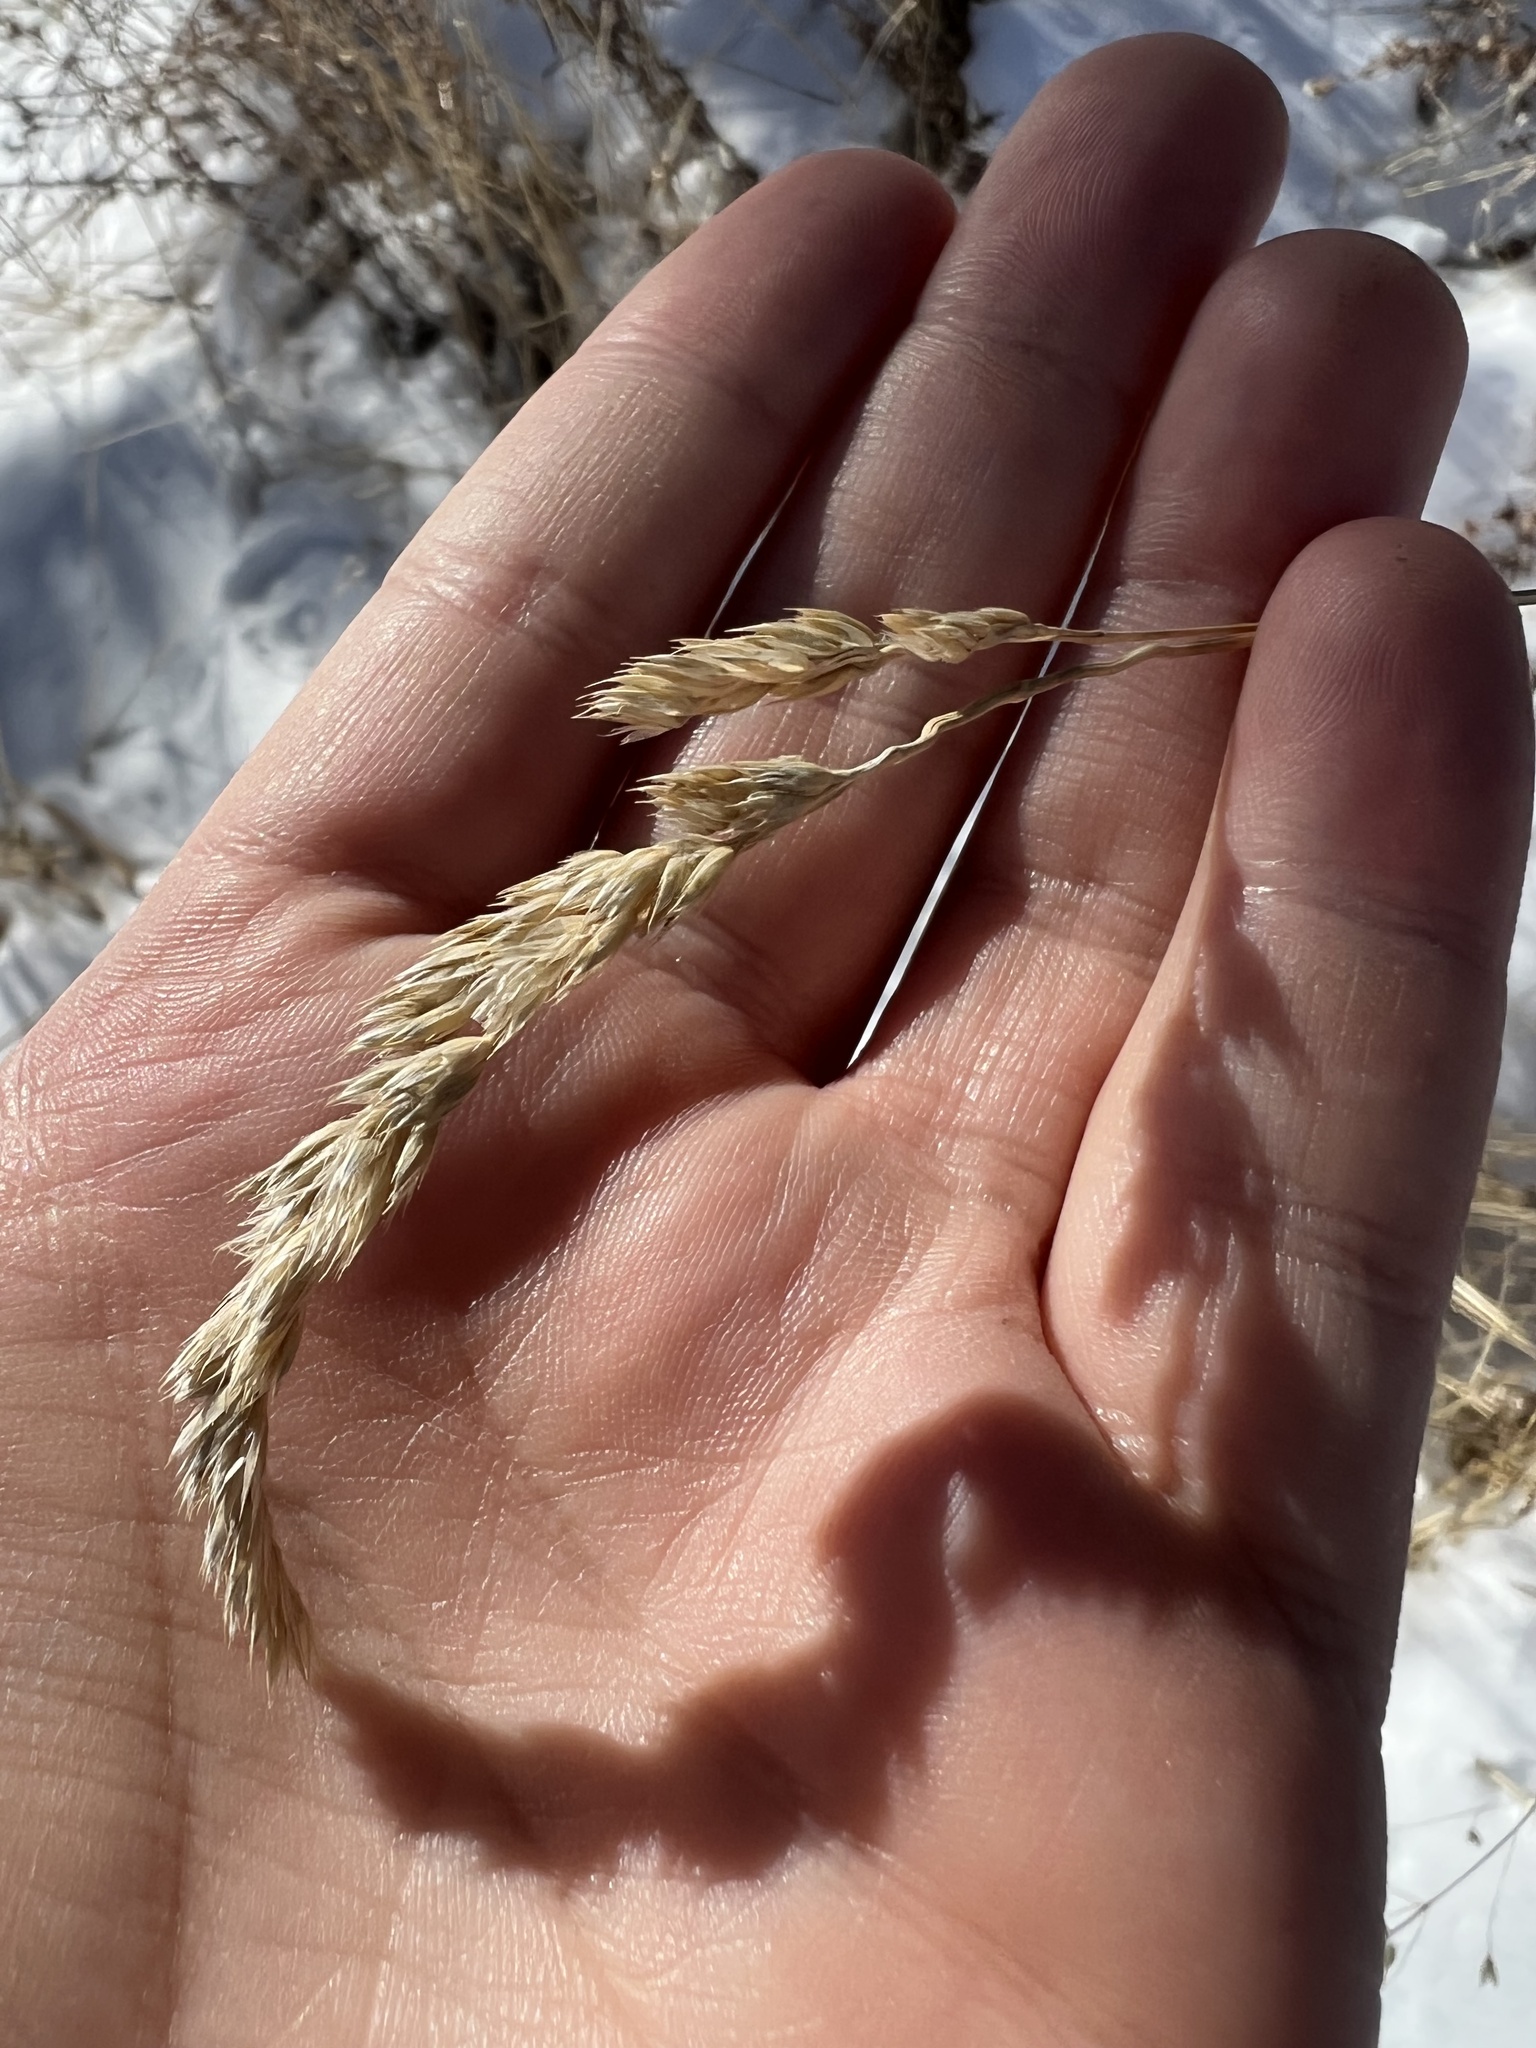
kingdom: Plantae
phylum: Tracheophyta
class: Liliopsida
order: Poales
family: Poaceae
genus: Dactylis
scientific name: Dactylis glomerata
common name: Orchardgrass
